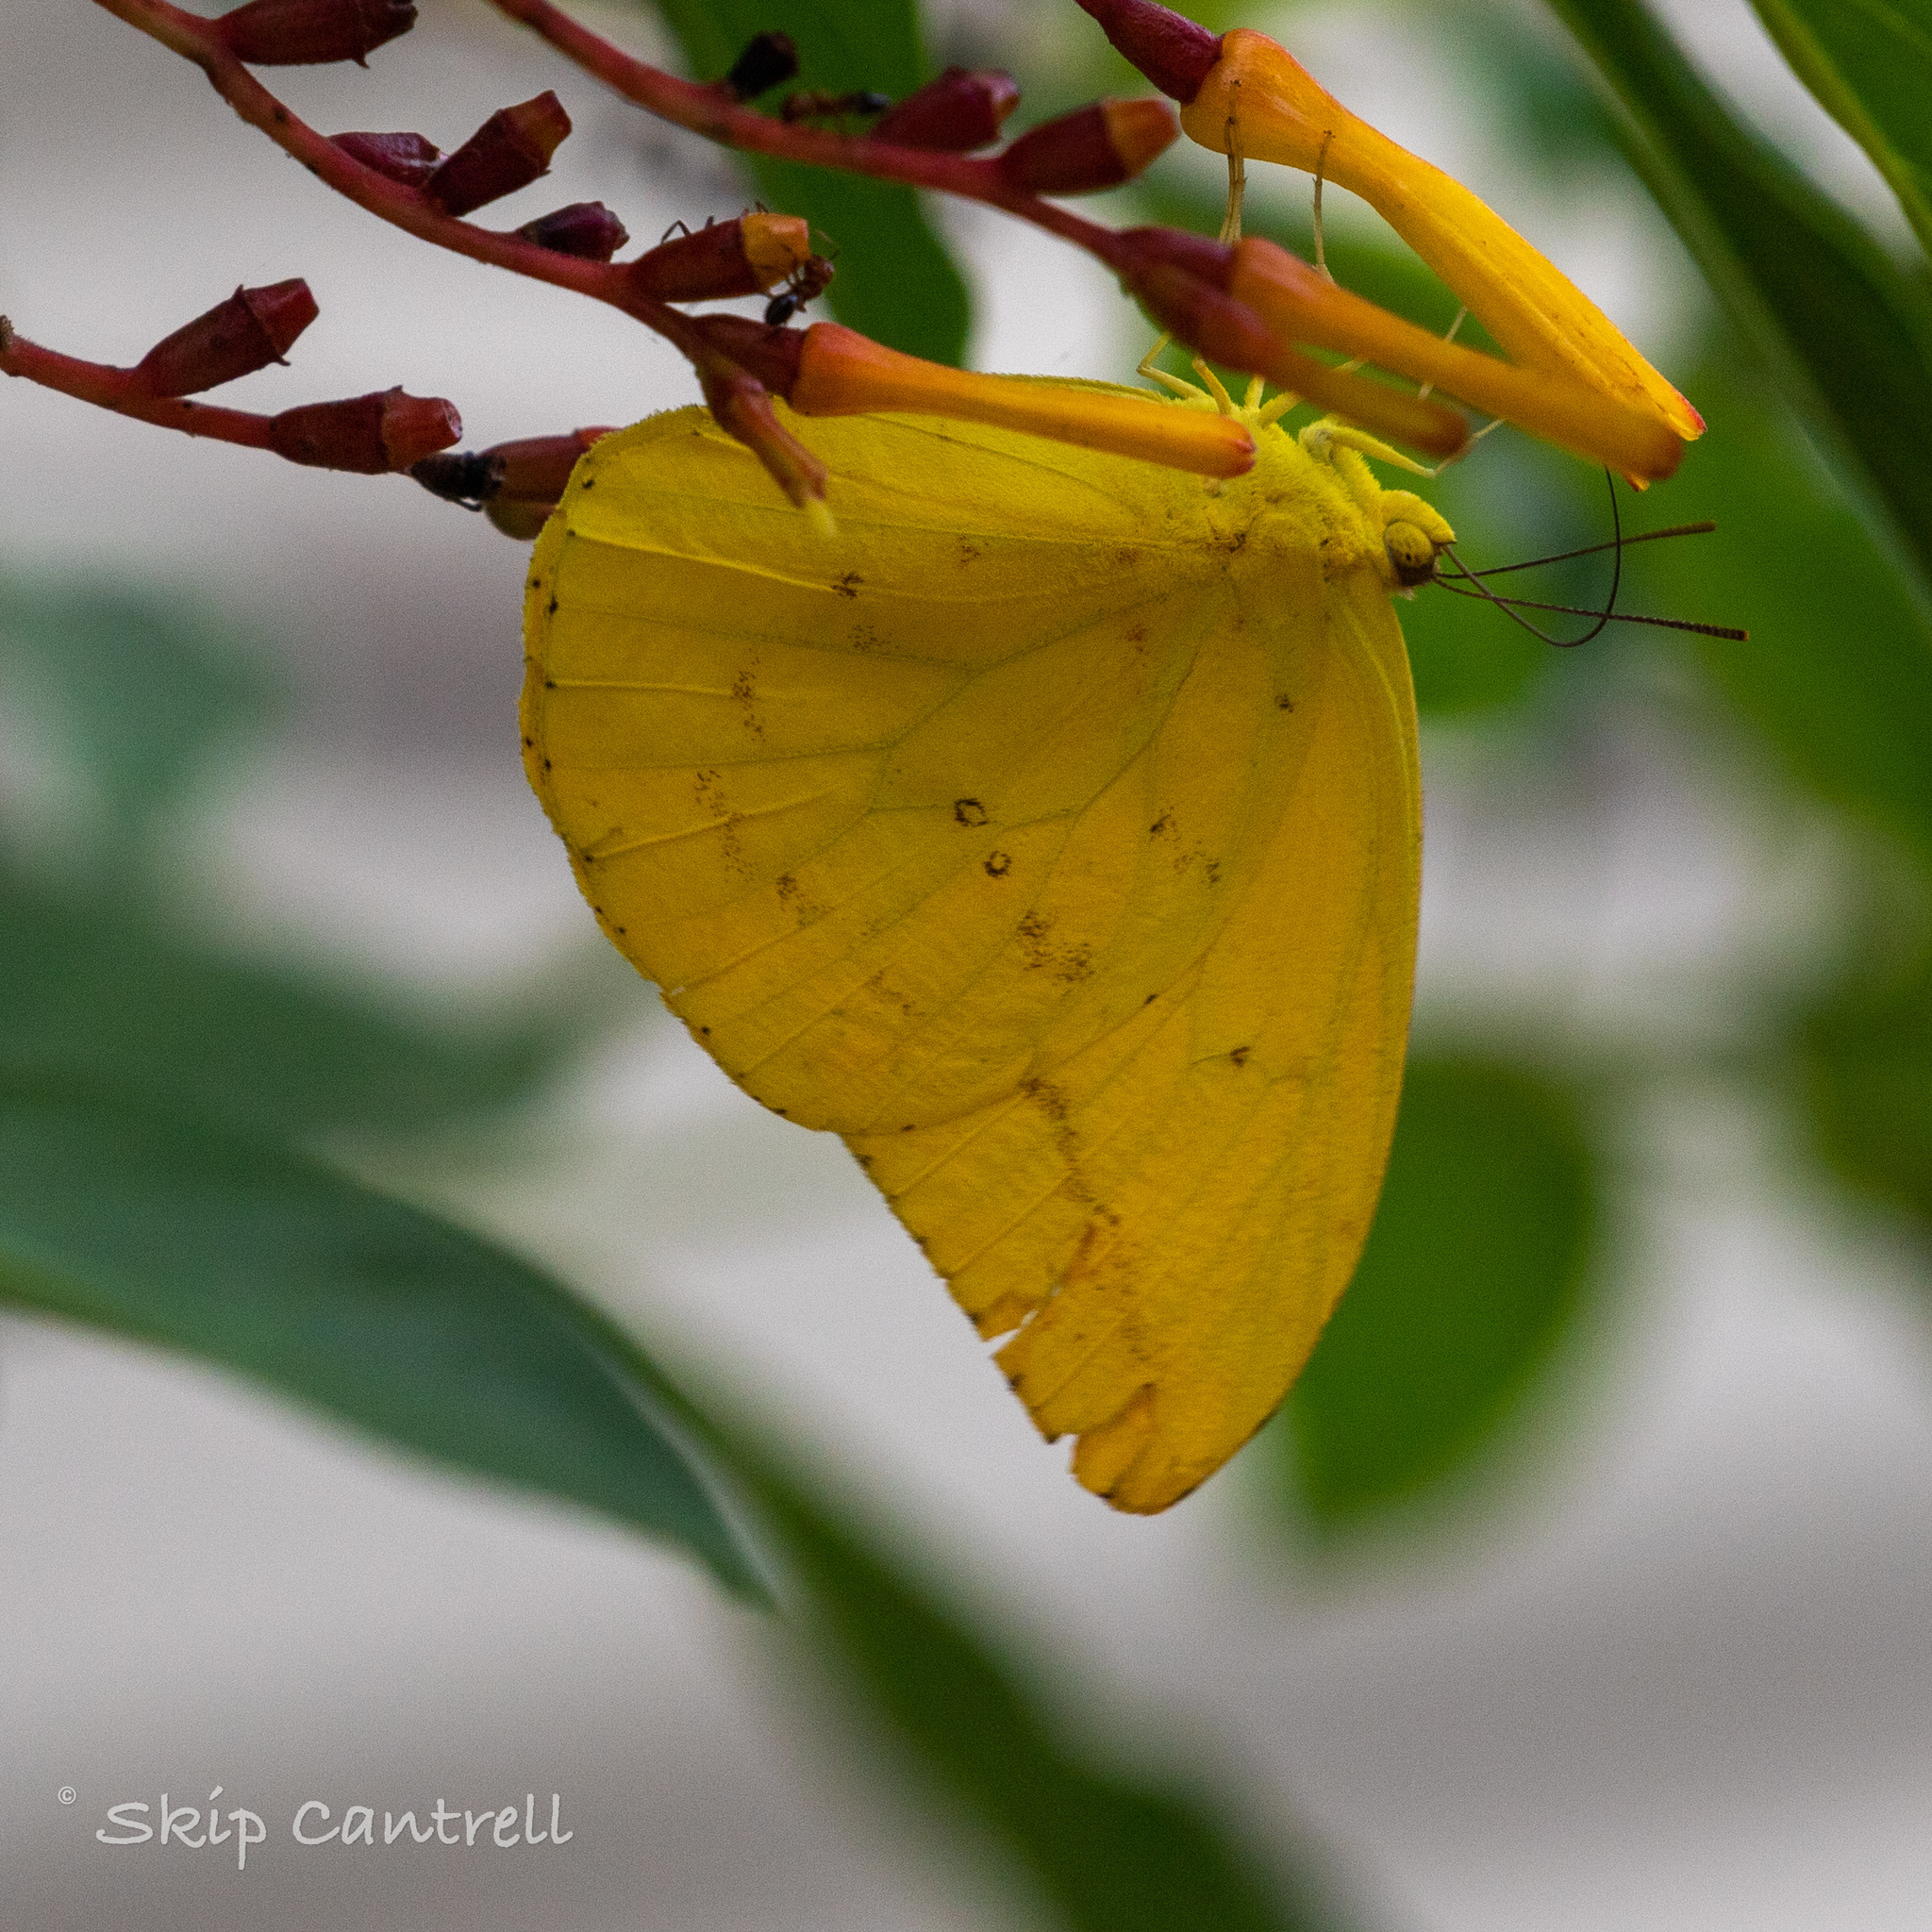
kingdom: Animalia
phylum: Arthropoda
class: Insecta
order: Lepidoptera
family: Pieridae
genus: Phoebis
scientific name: Phoebis agarithe
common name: Large orange sulphur
